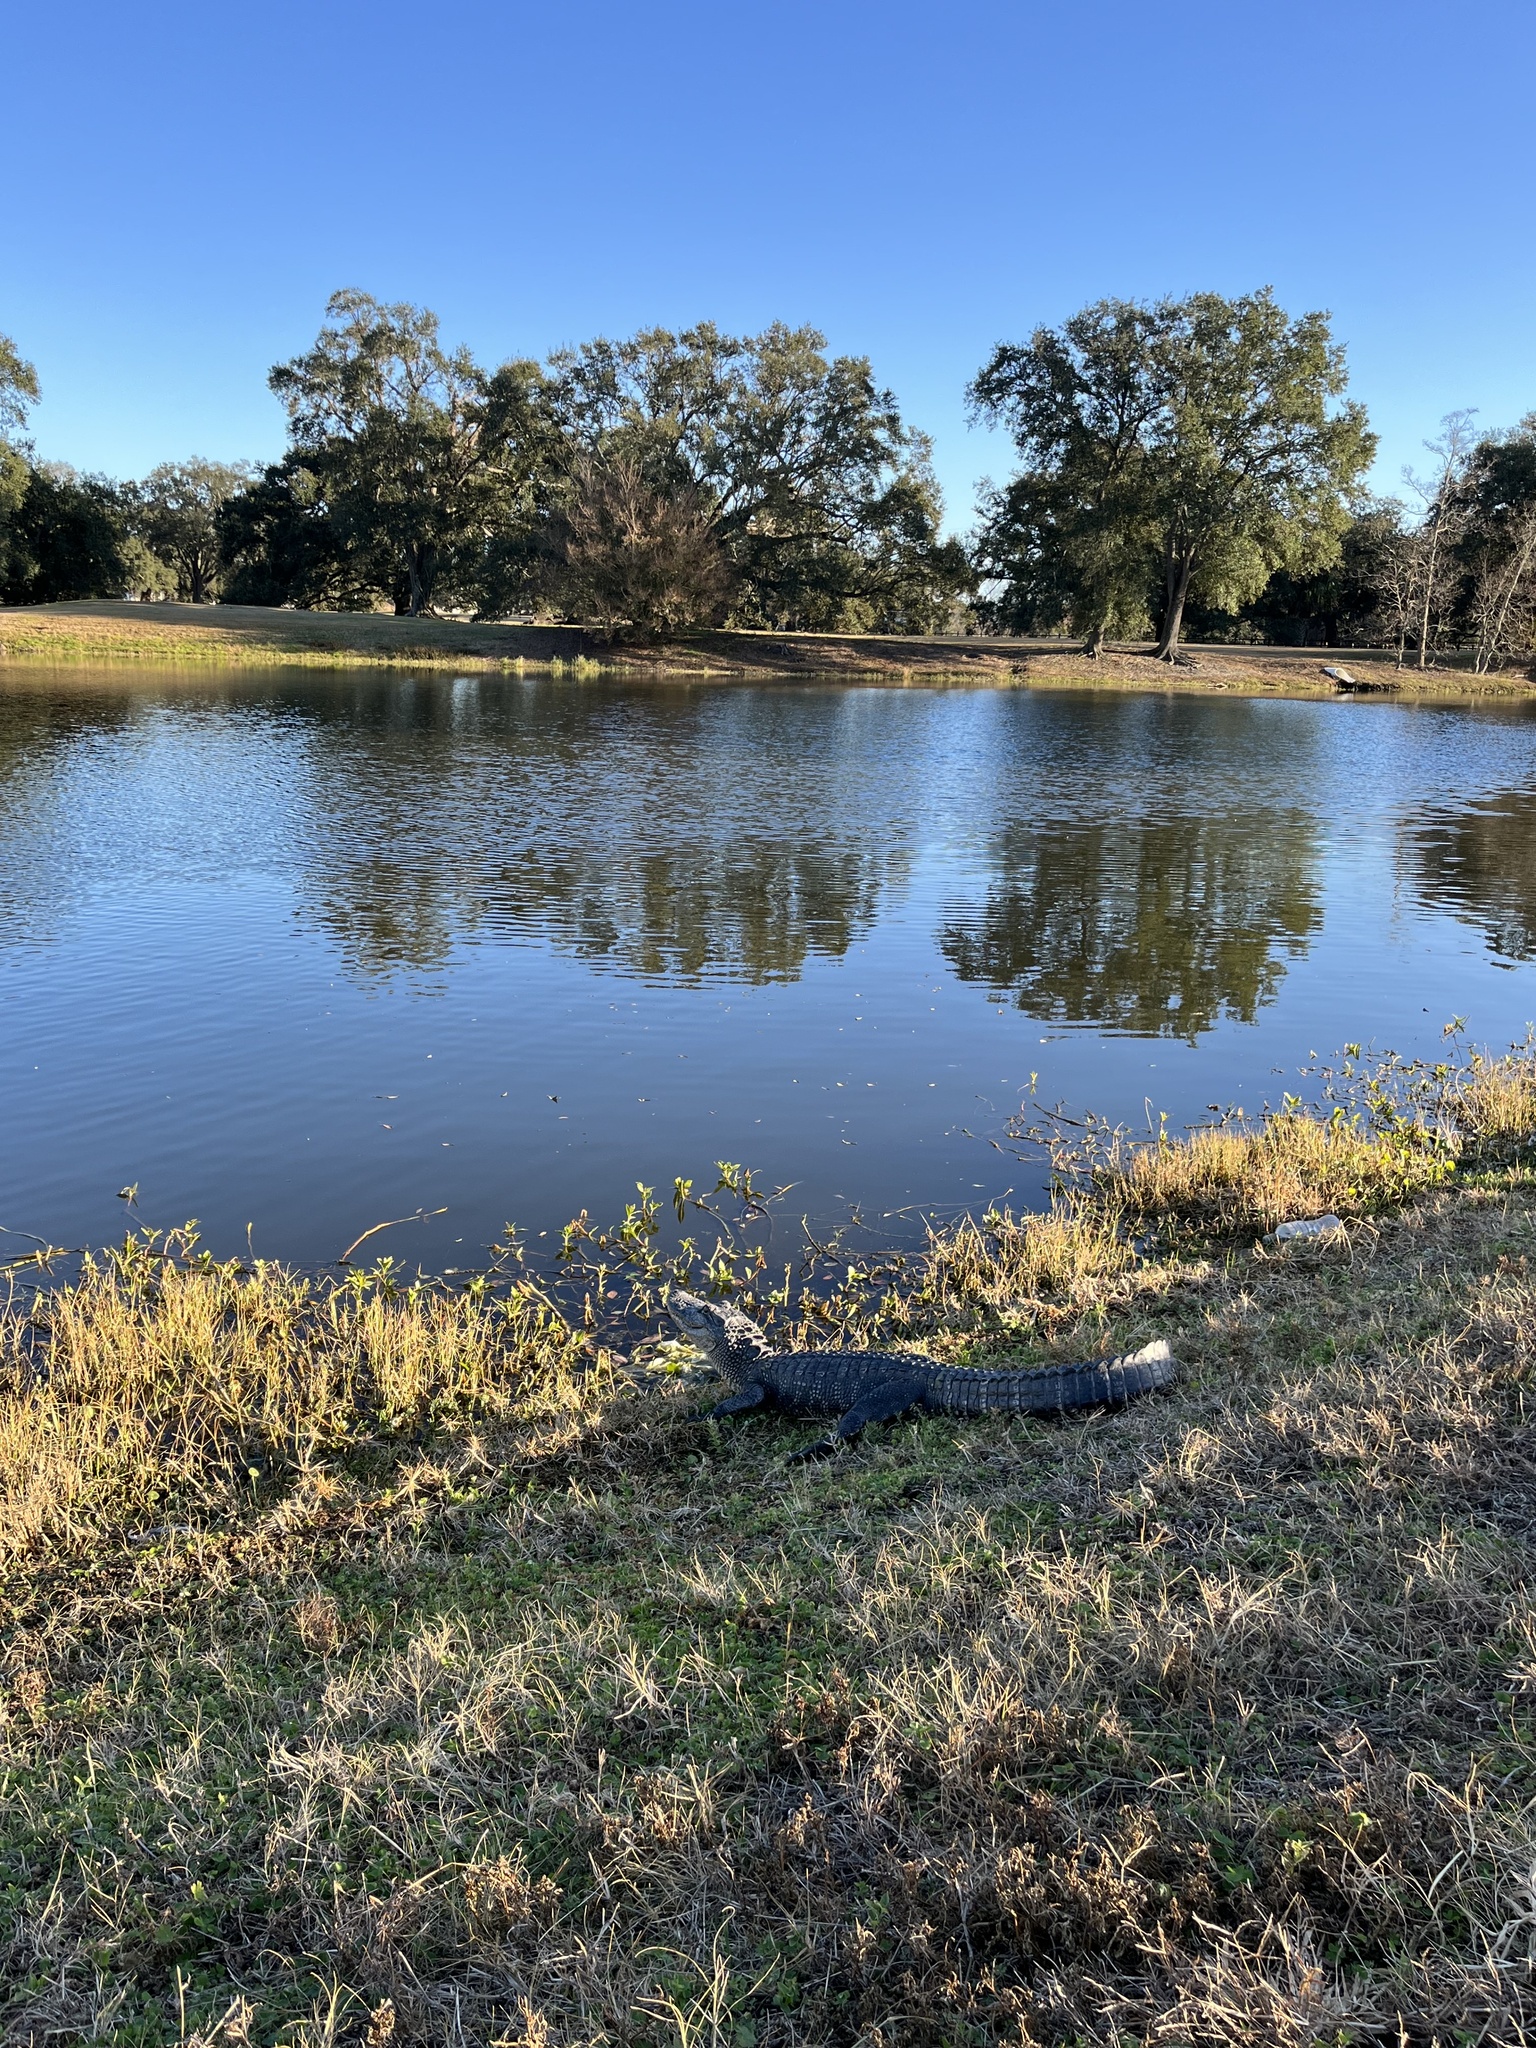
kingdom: Animalia
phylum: Chordata
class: Crocodylia
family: Alligatoridae
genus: Alligator
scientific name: Alligator mississippiensis
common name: American alligator
